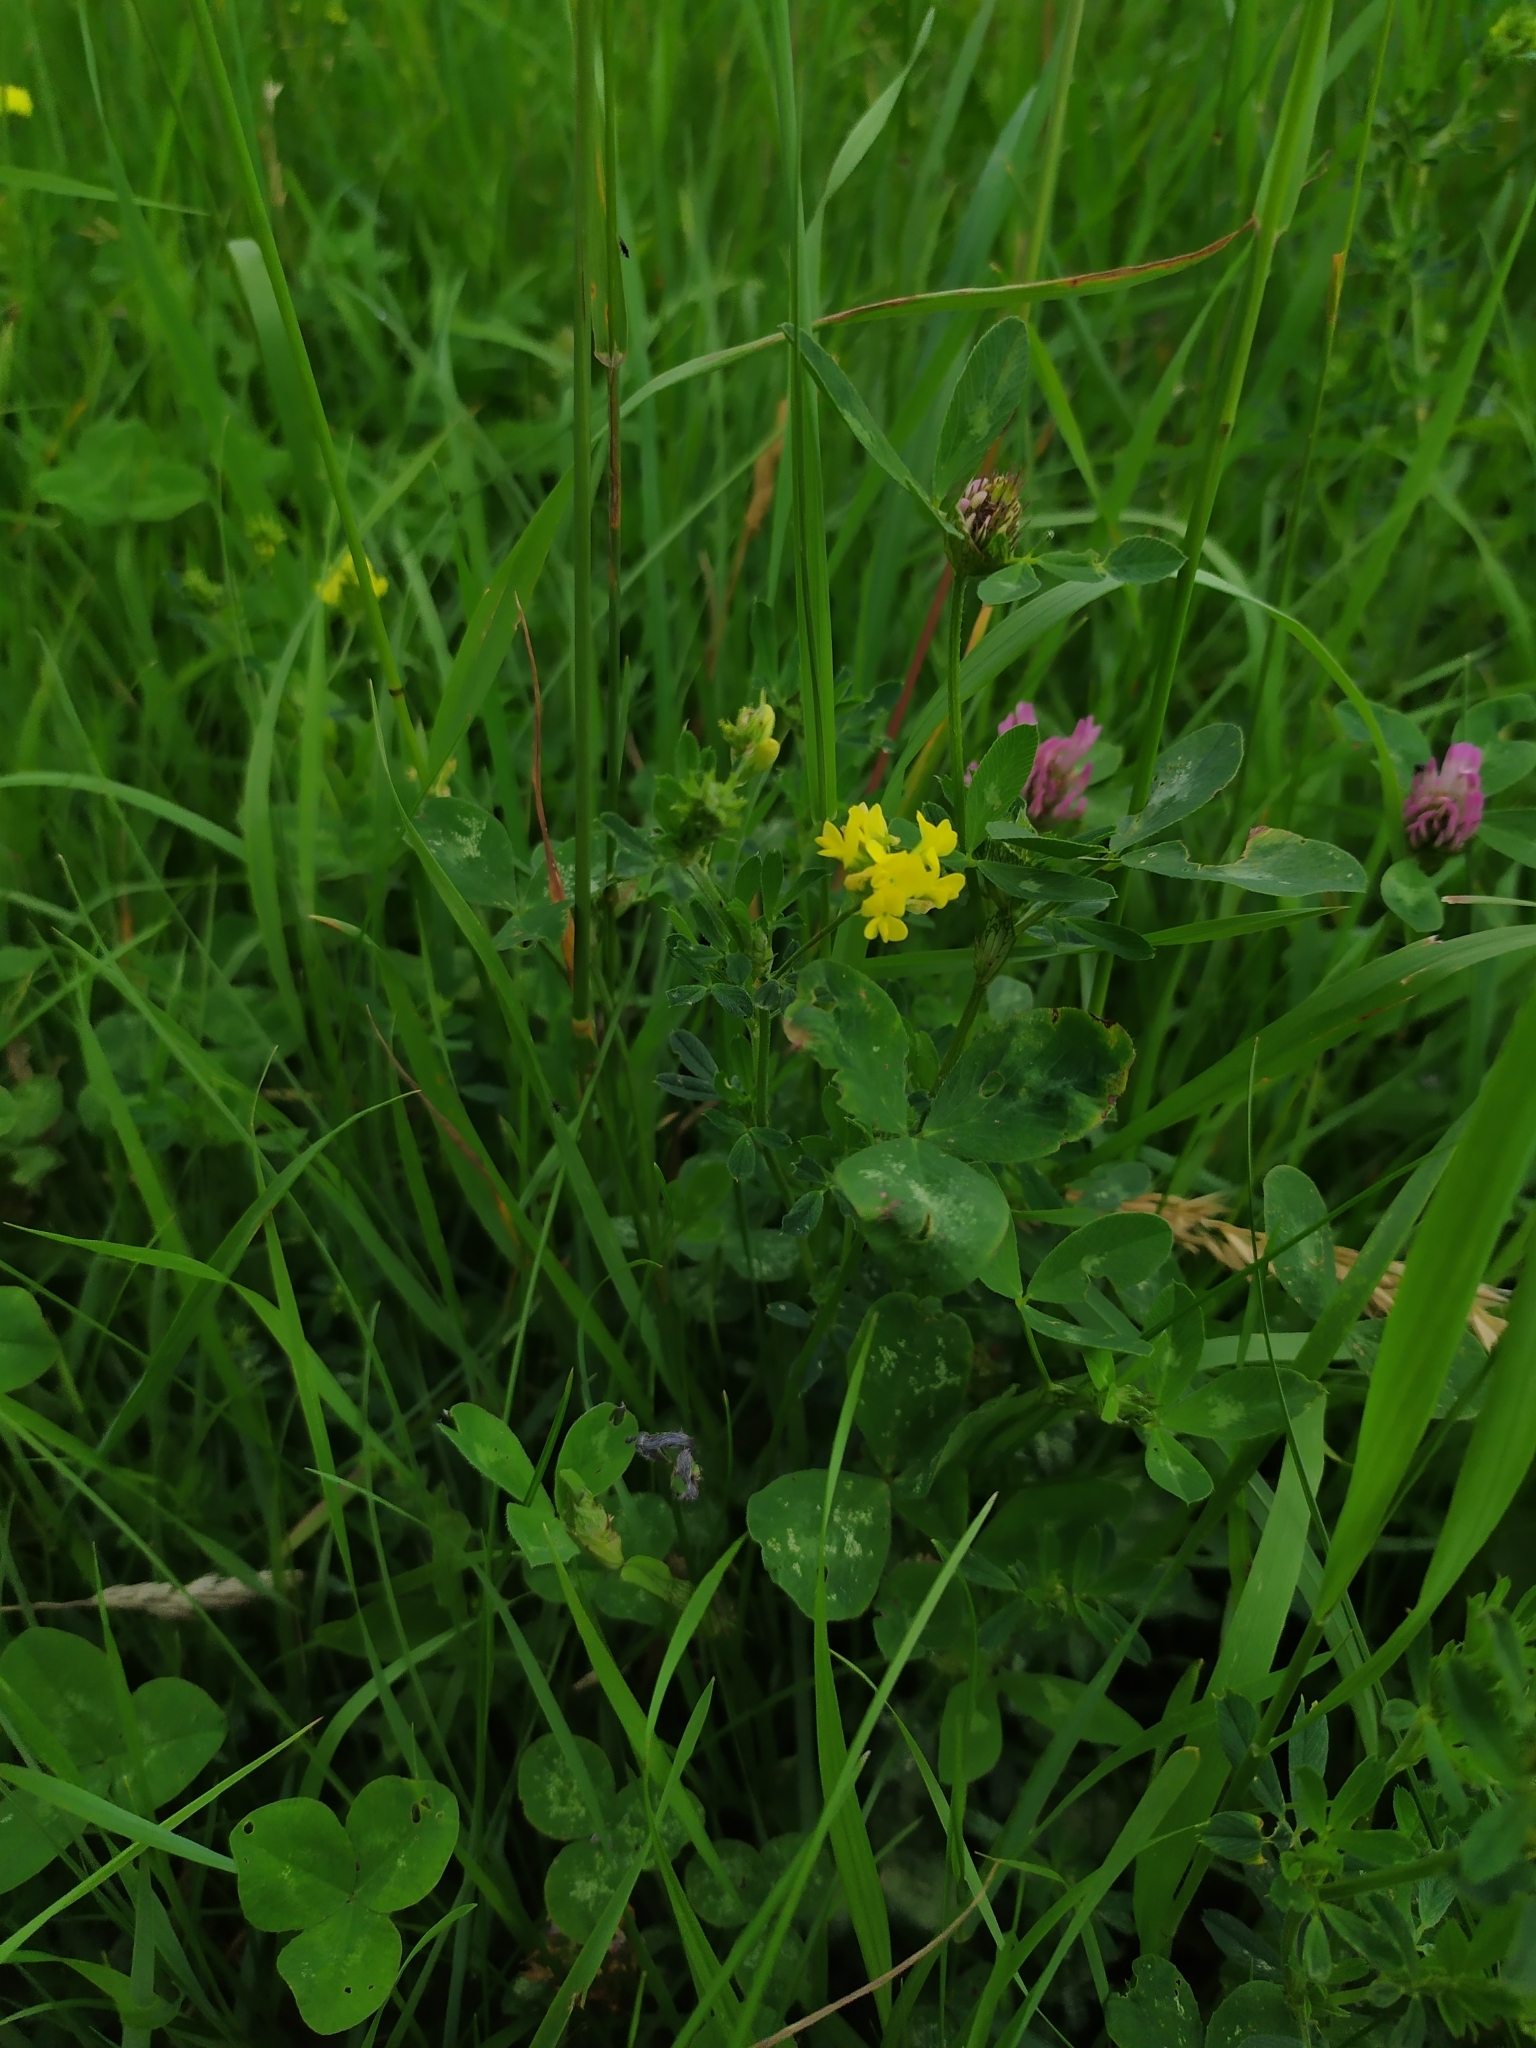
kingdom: Plantae
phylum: Tracheophyta
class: Magnoliopsida
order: Fabales
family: Fabaceae
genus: Medicago
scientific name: Medicago falcata
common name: Sickle medick
